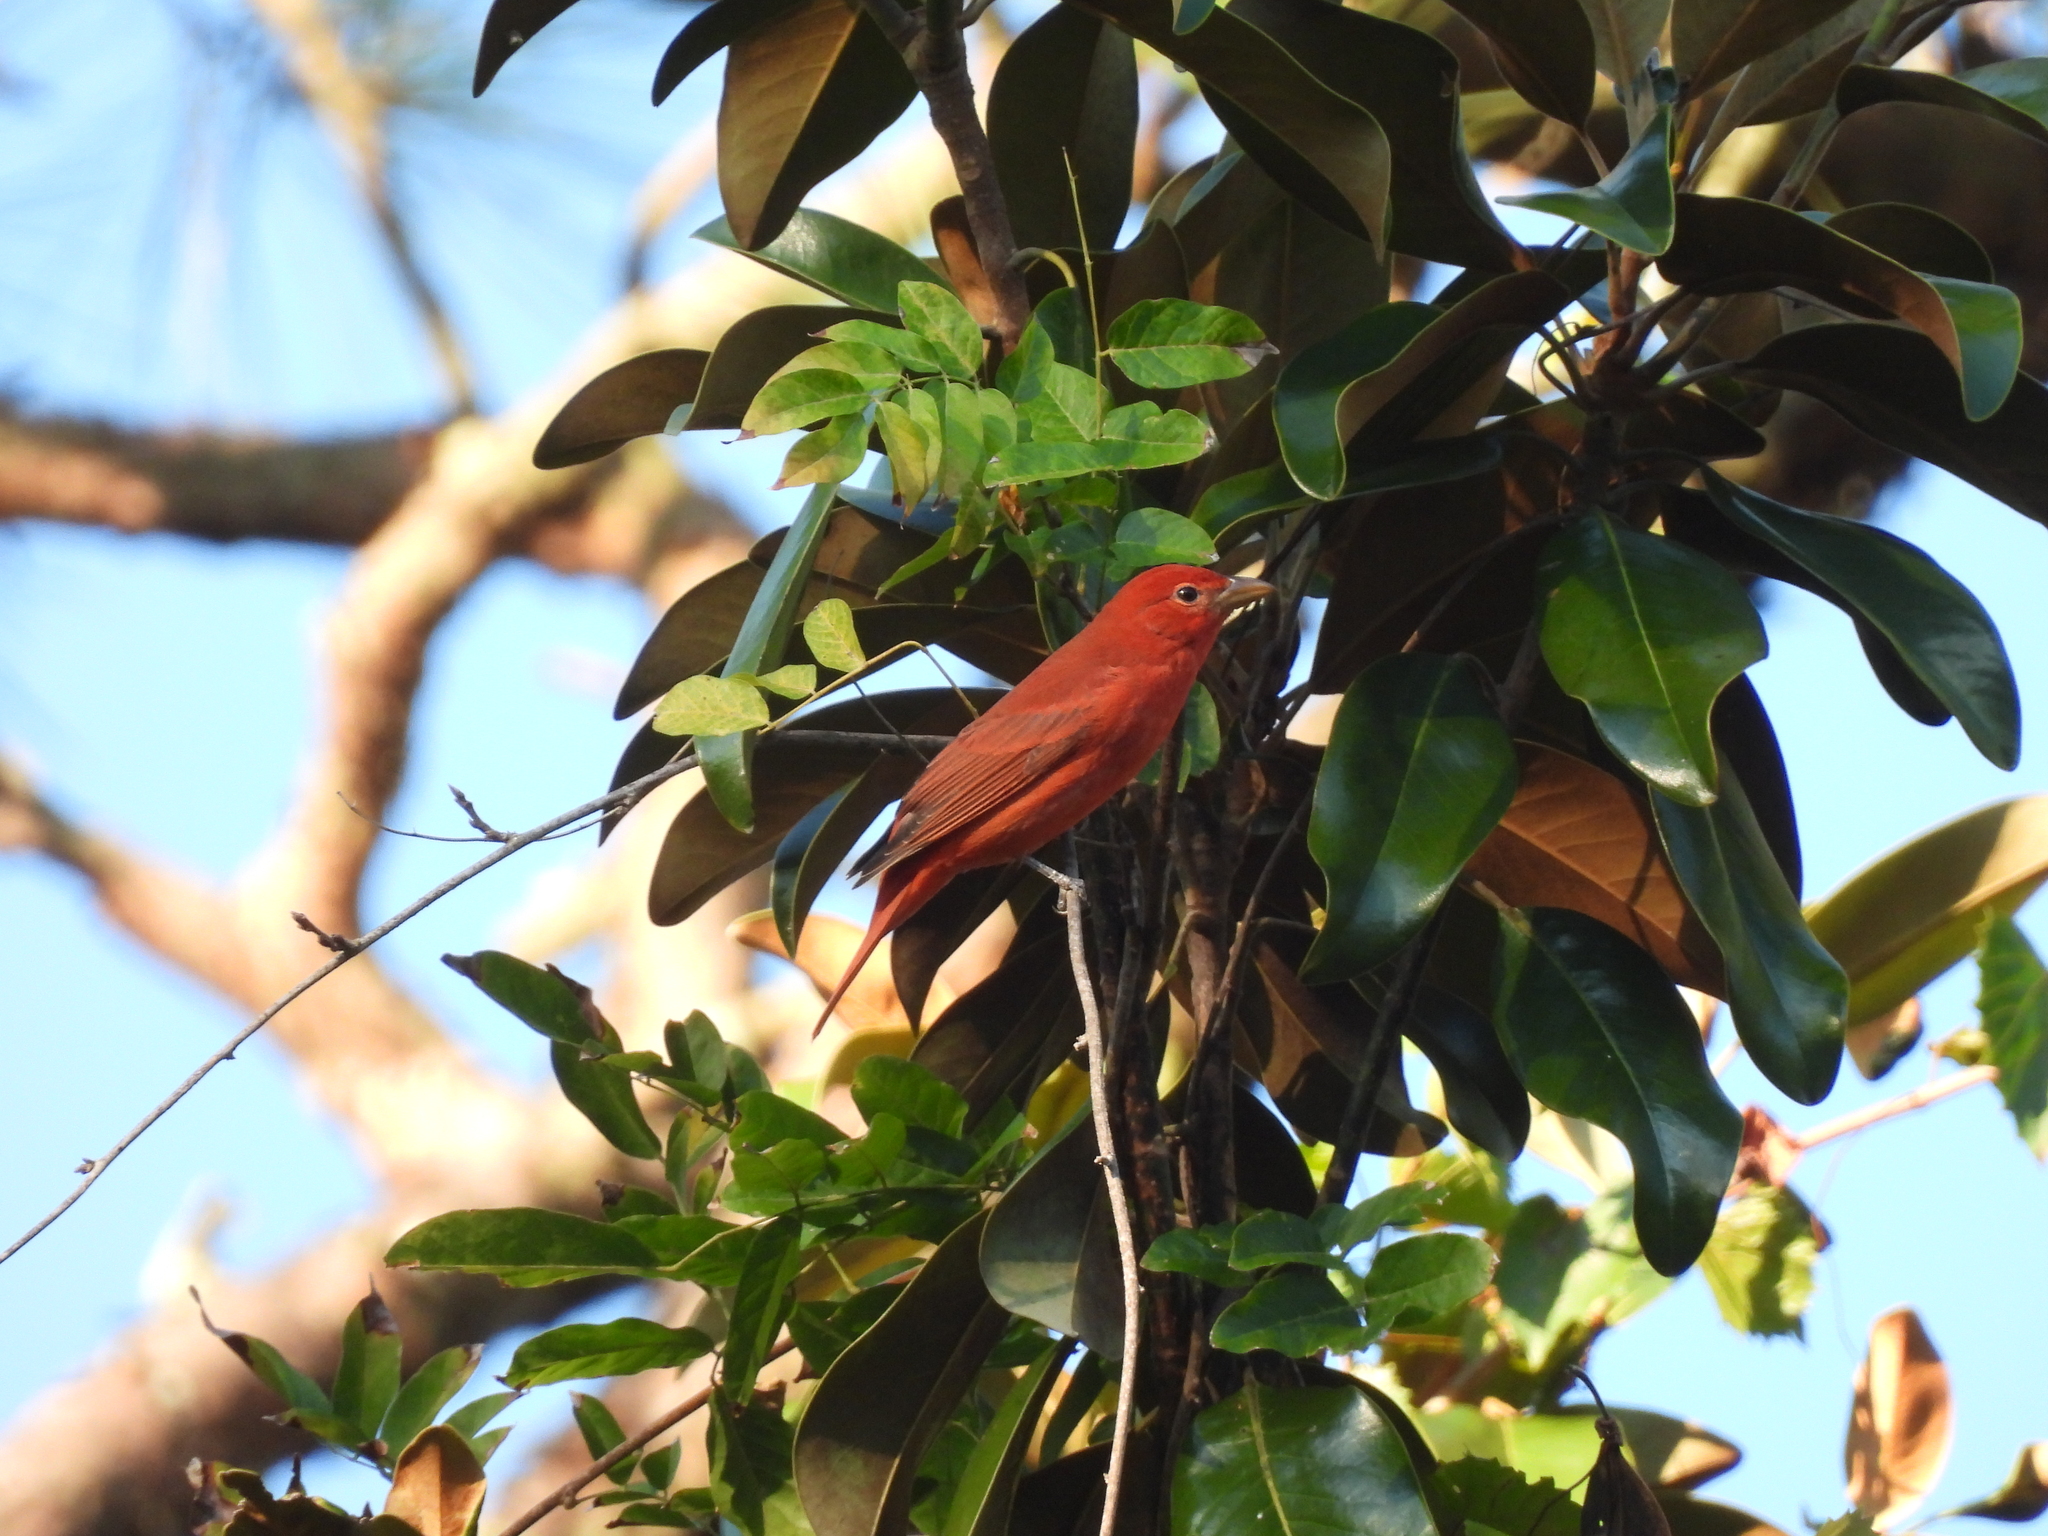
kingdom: Animalia
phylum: Chordata
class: Aves
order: Passeriformes
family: Cardinalidae
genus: Piranga
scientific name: Piranga rubra
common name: Summer tanager
